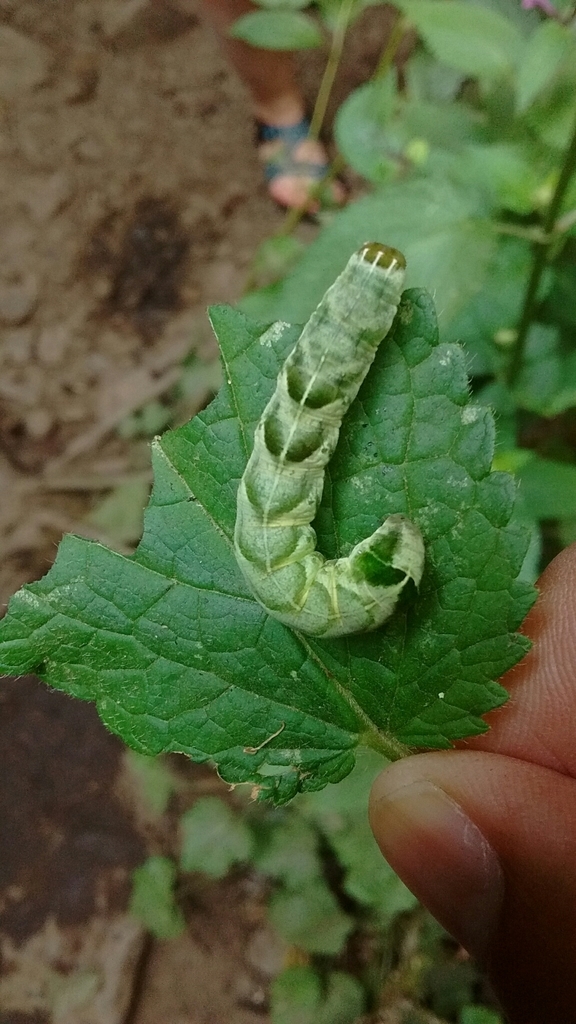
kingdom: Animalia
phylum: Arthropoda
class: Insecta
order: Lepidoptera
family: Noctuidae
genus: Melanchra
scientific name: Melanchra adjuncta
